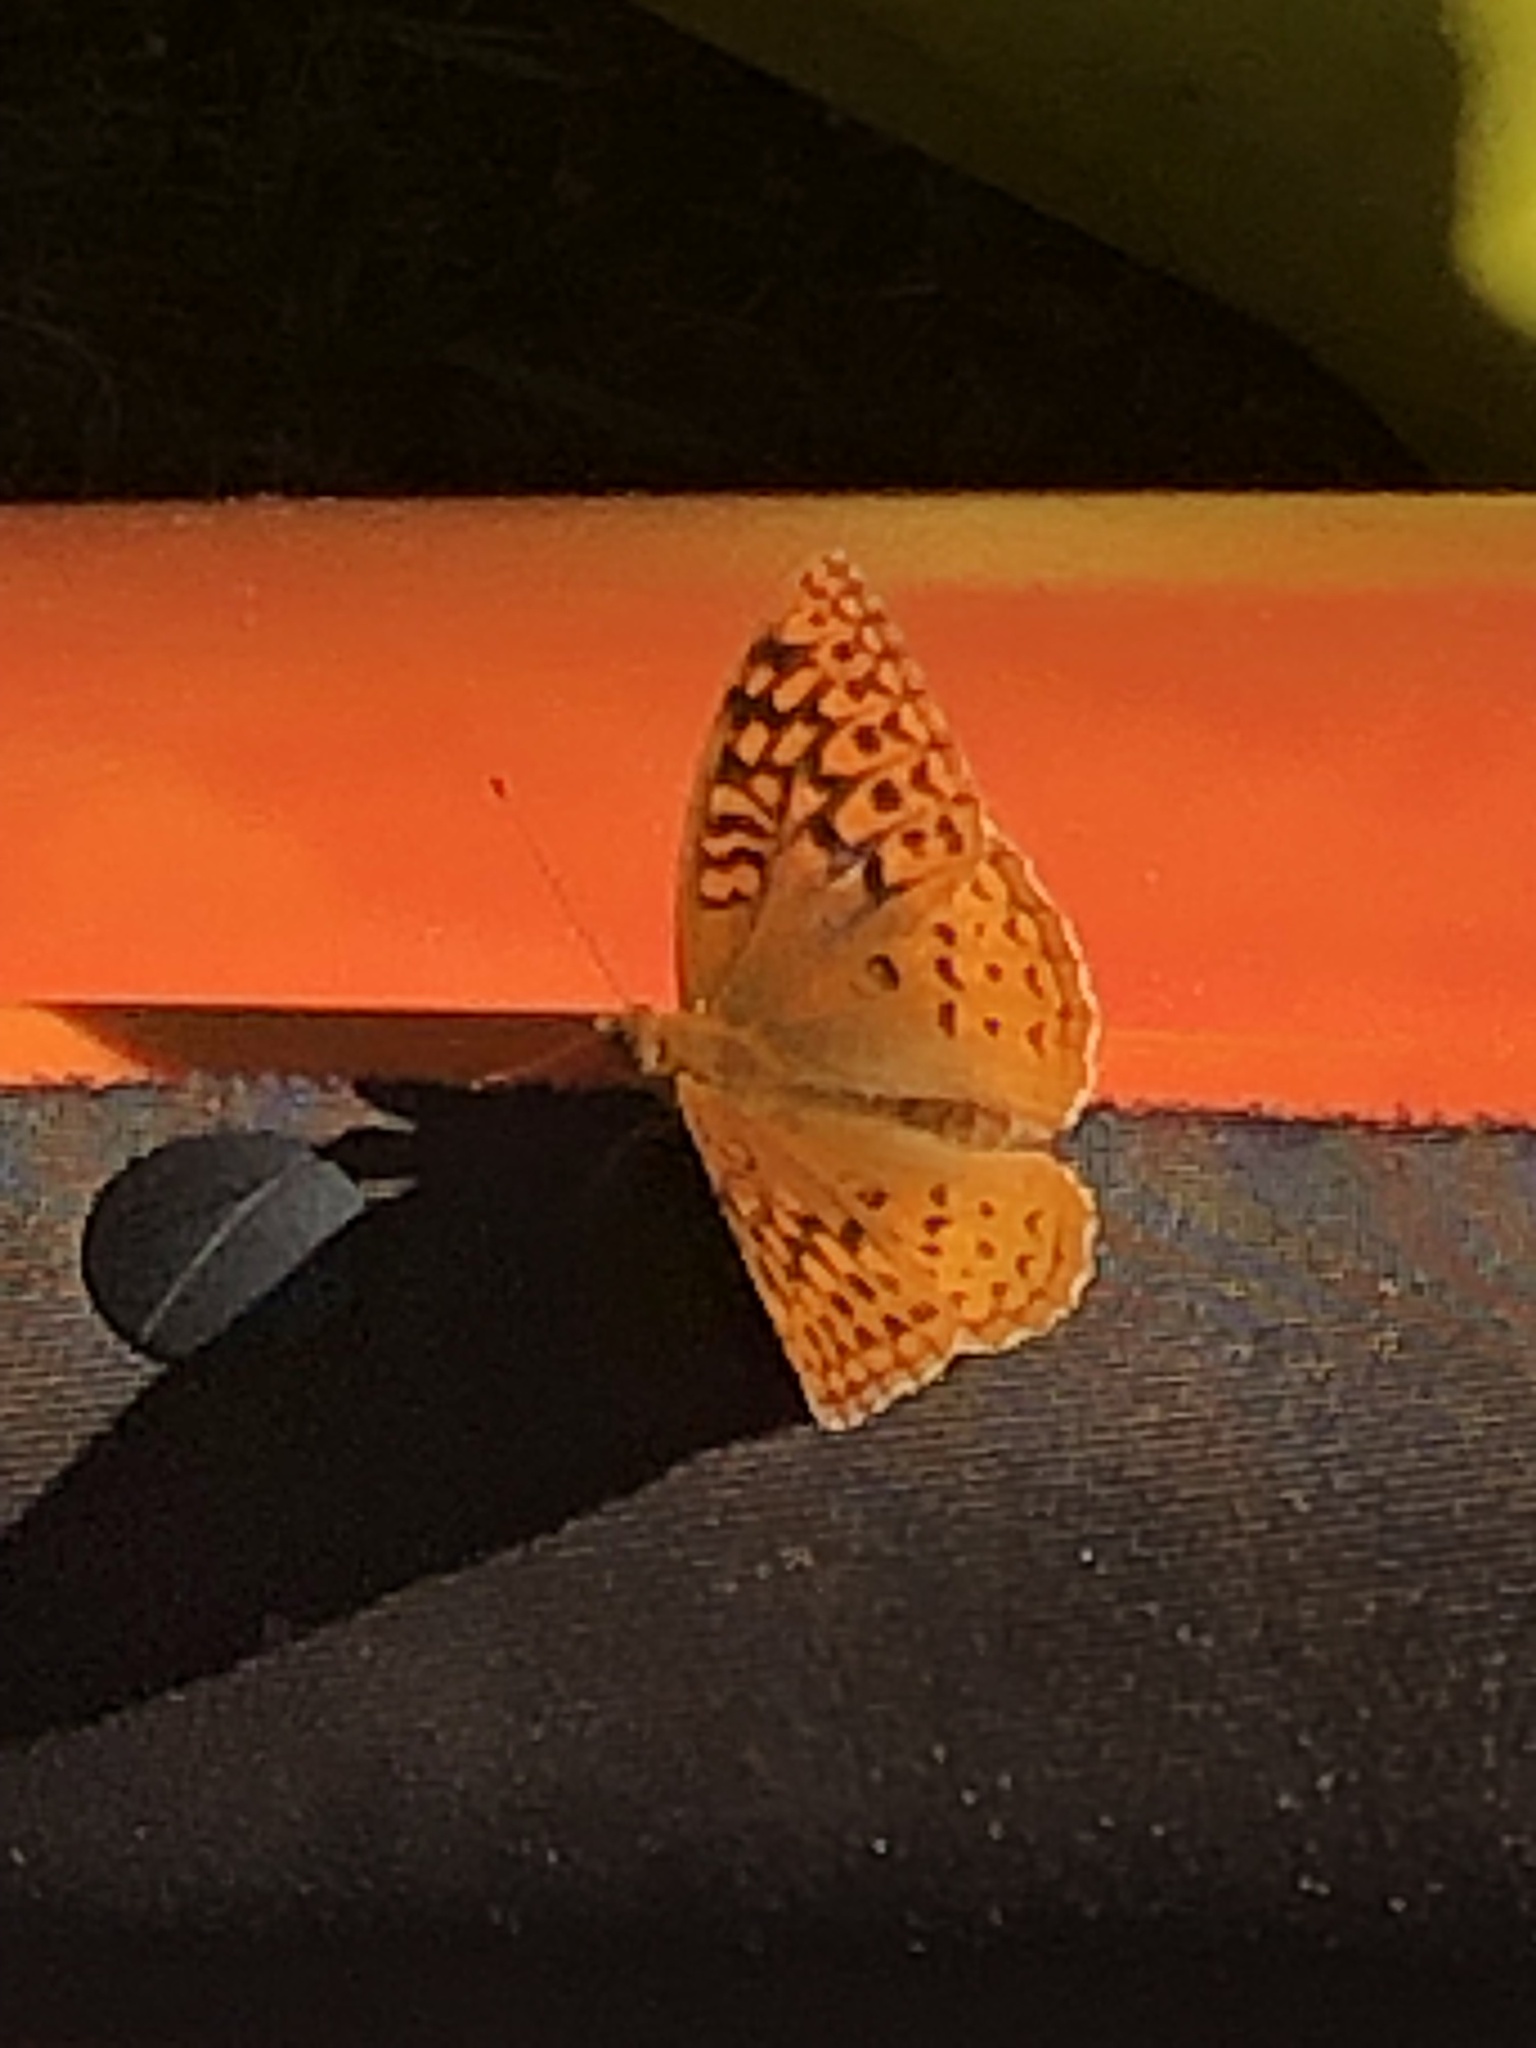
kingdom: Animalia
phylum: Arthropoda
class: Insecta
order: Lepidoptera
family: Nymphalidae
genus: Speyeria
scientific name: Speyeria cybele
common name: Great spangled fritillary
